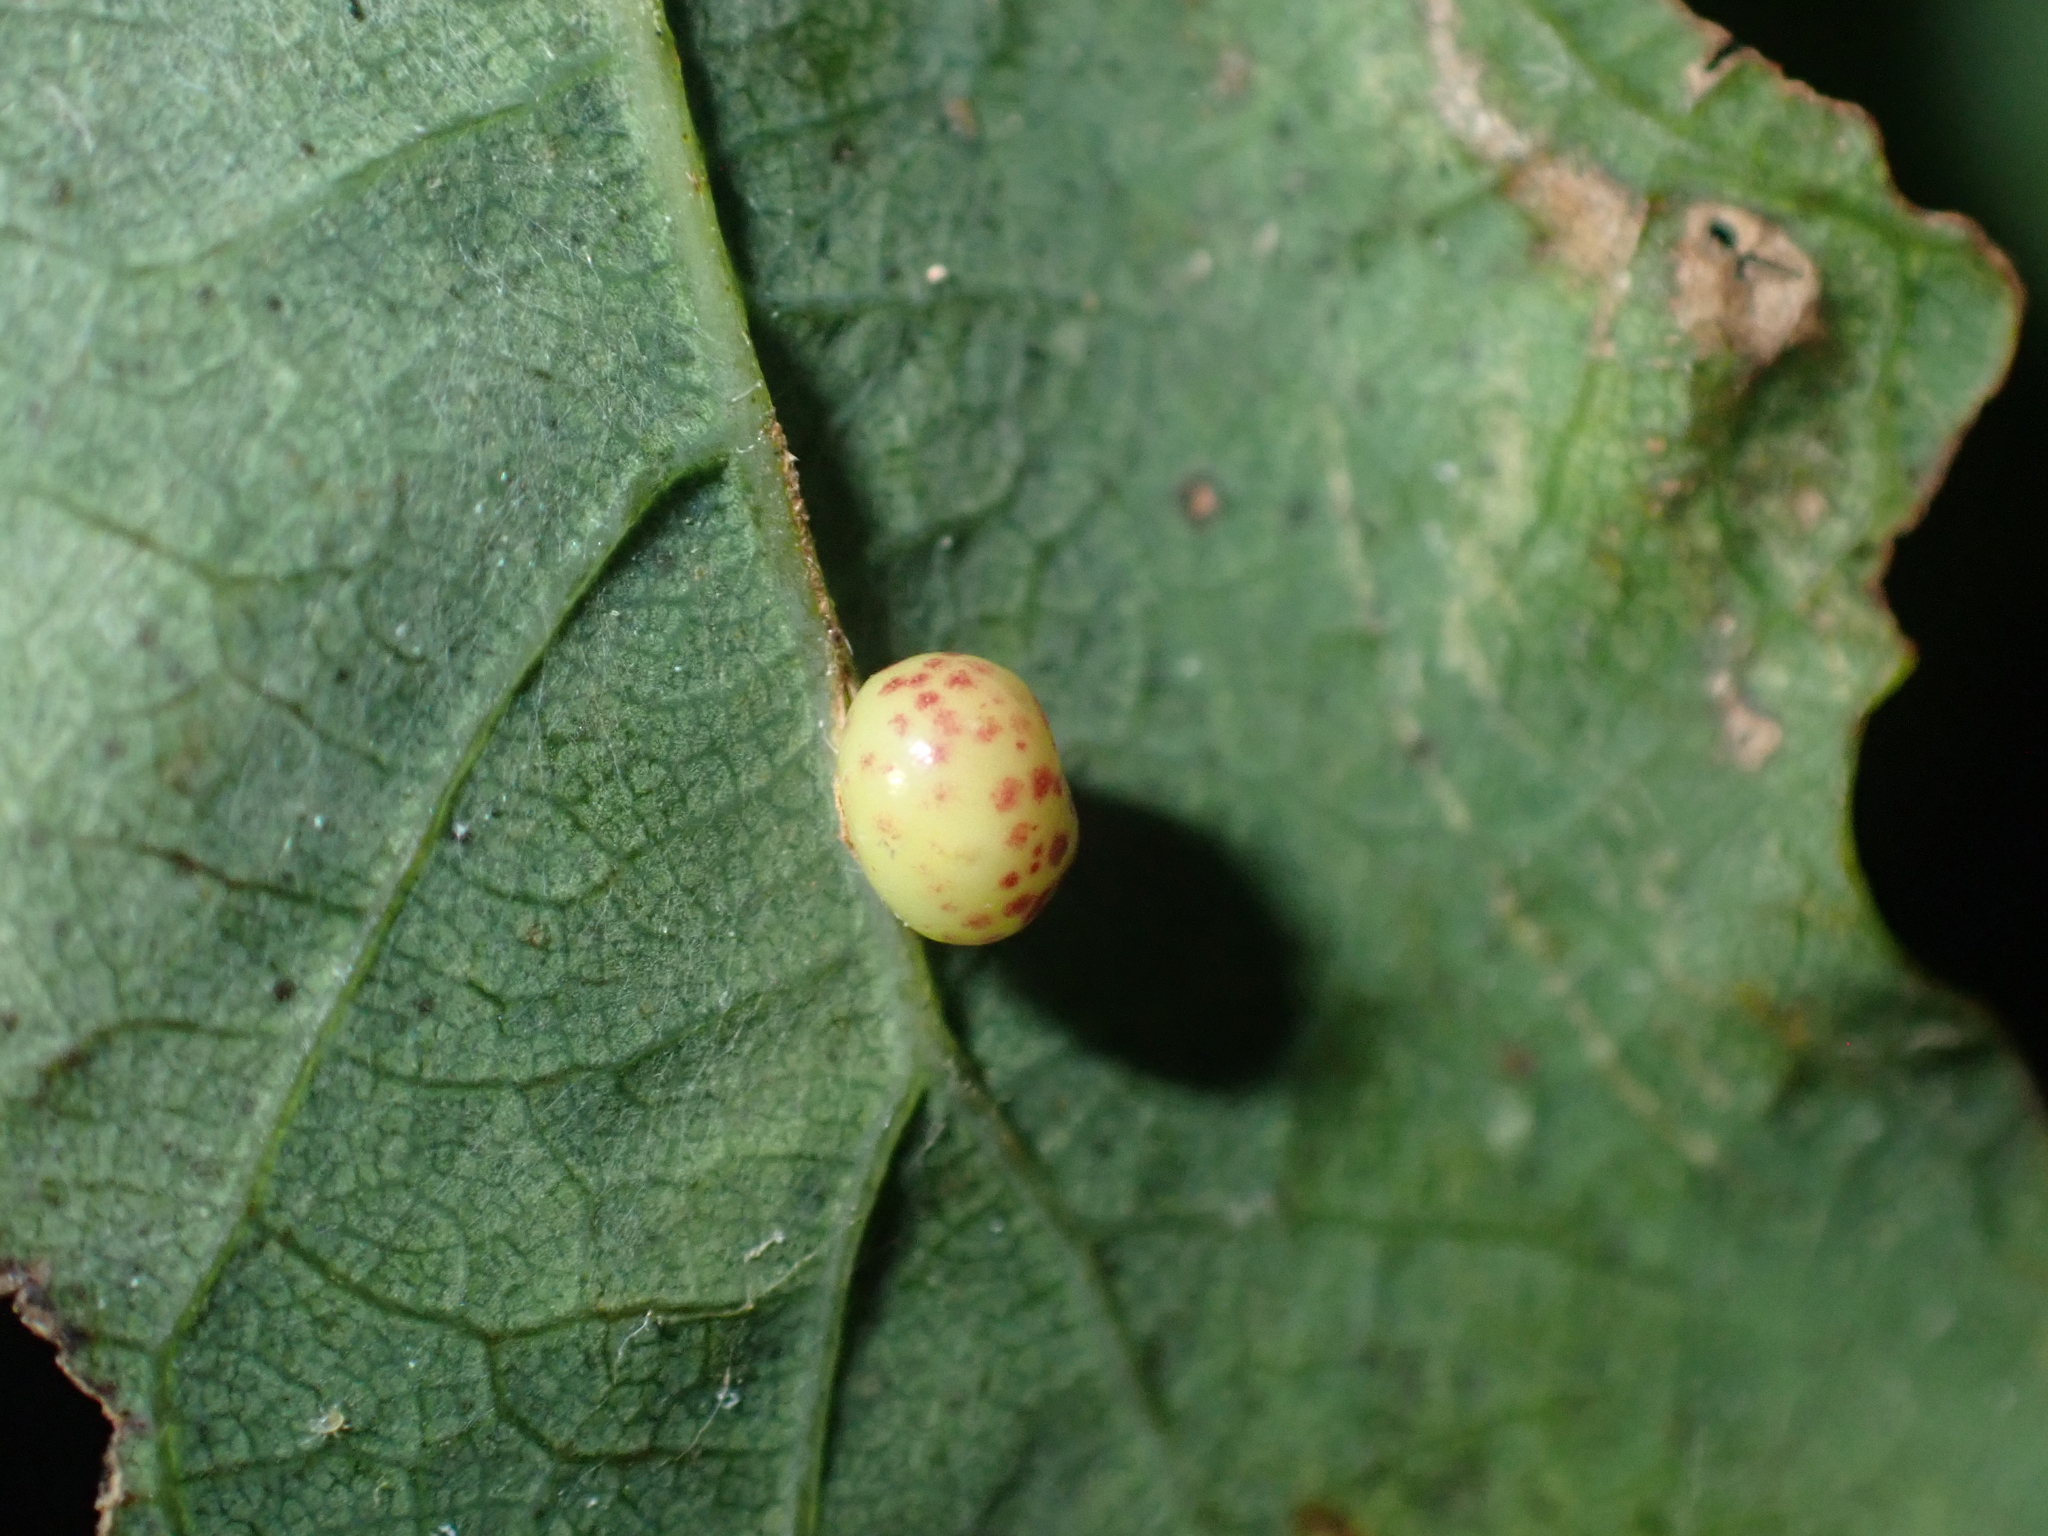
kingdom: Animalia
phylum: Arthropoda
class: Insecta
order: Hymenoptera
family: Cynipidae
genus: Neuroterus
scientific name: Neuroterus anthracinus
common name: Oyster gall
